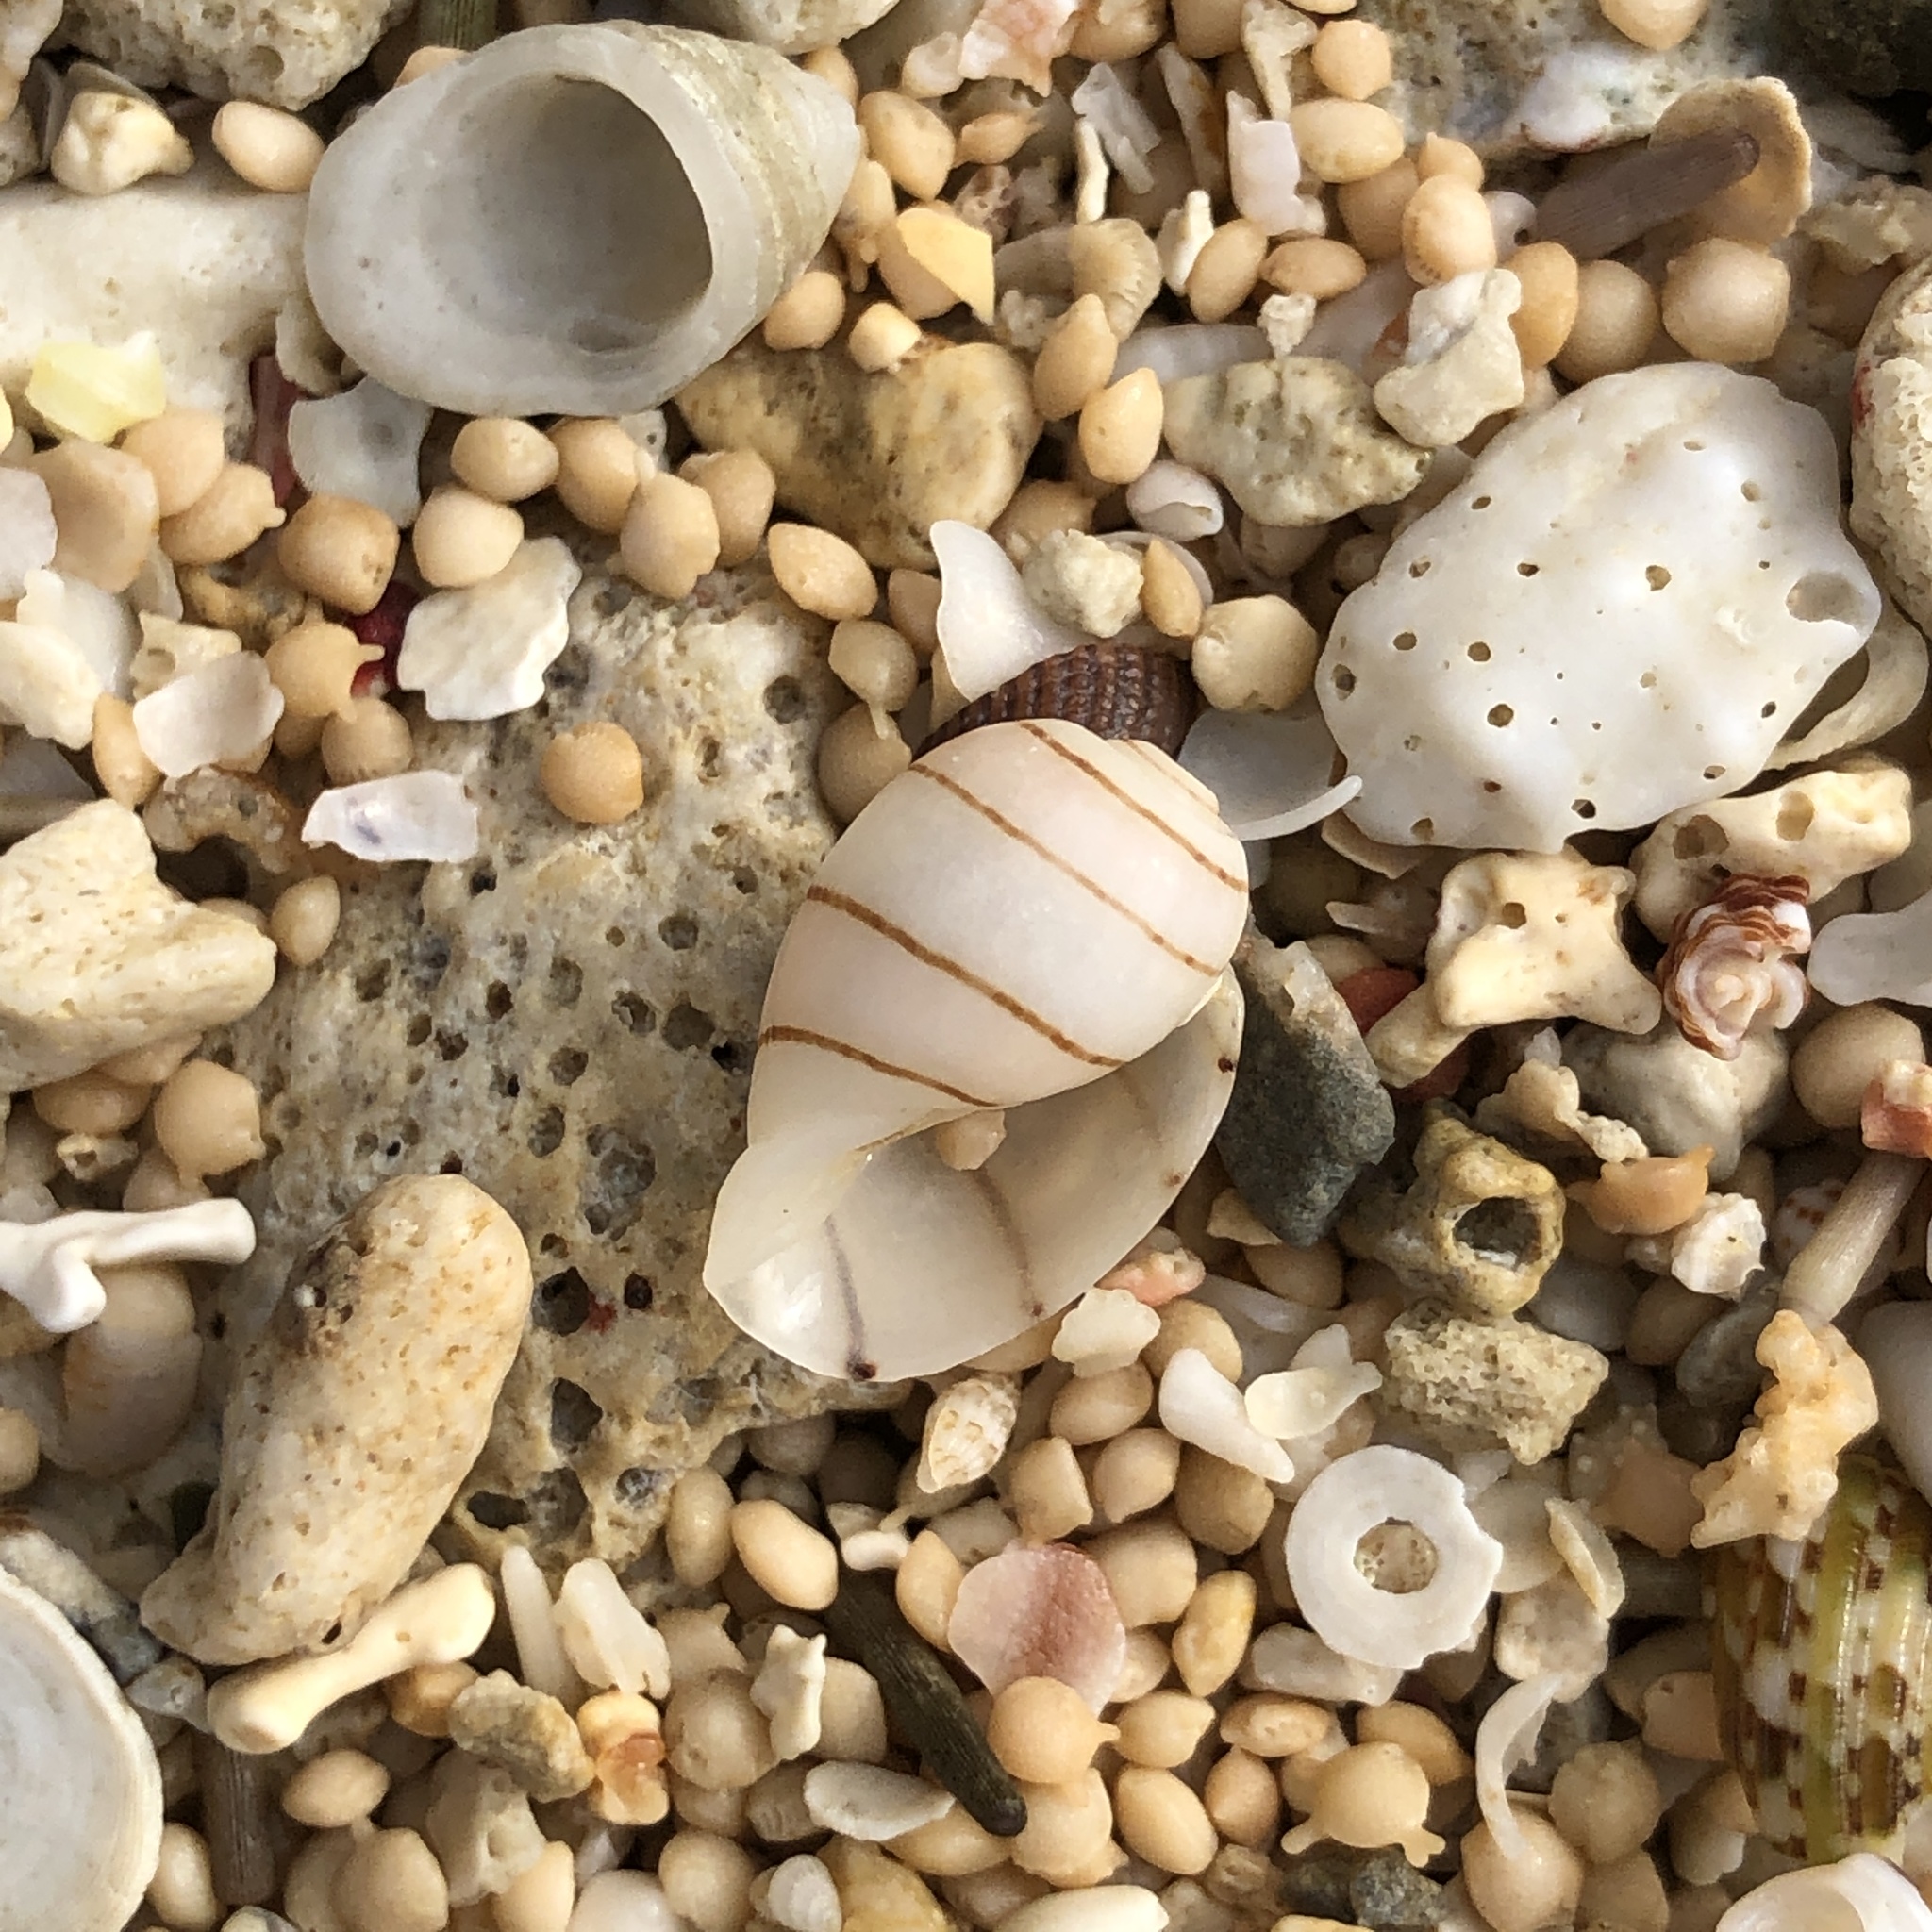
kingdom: Animalia
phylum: Mollusca
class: Gastropoda
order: Cephalaspidea
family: Aplustridae
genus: Aplustrum
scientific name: Aplustrum amplustre
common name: Royal paperbubble
